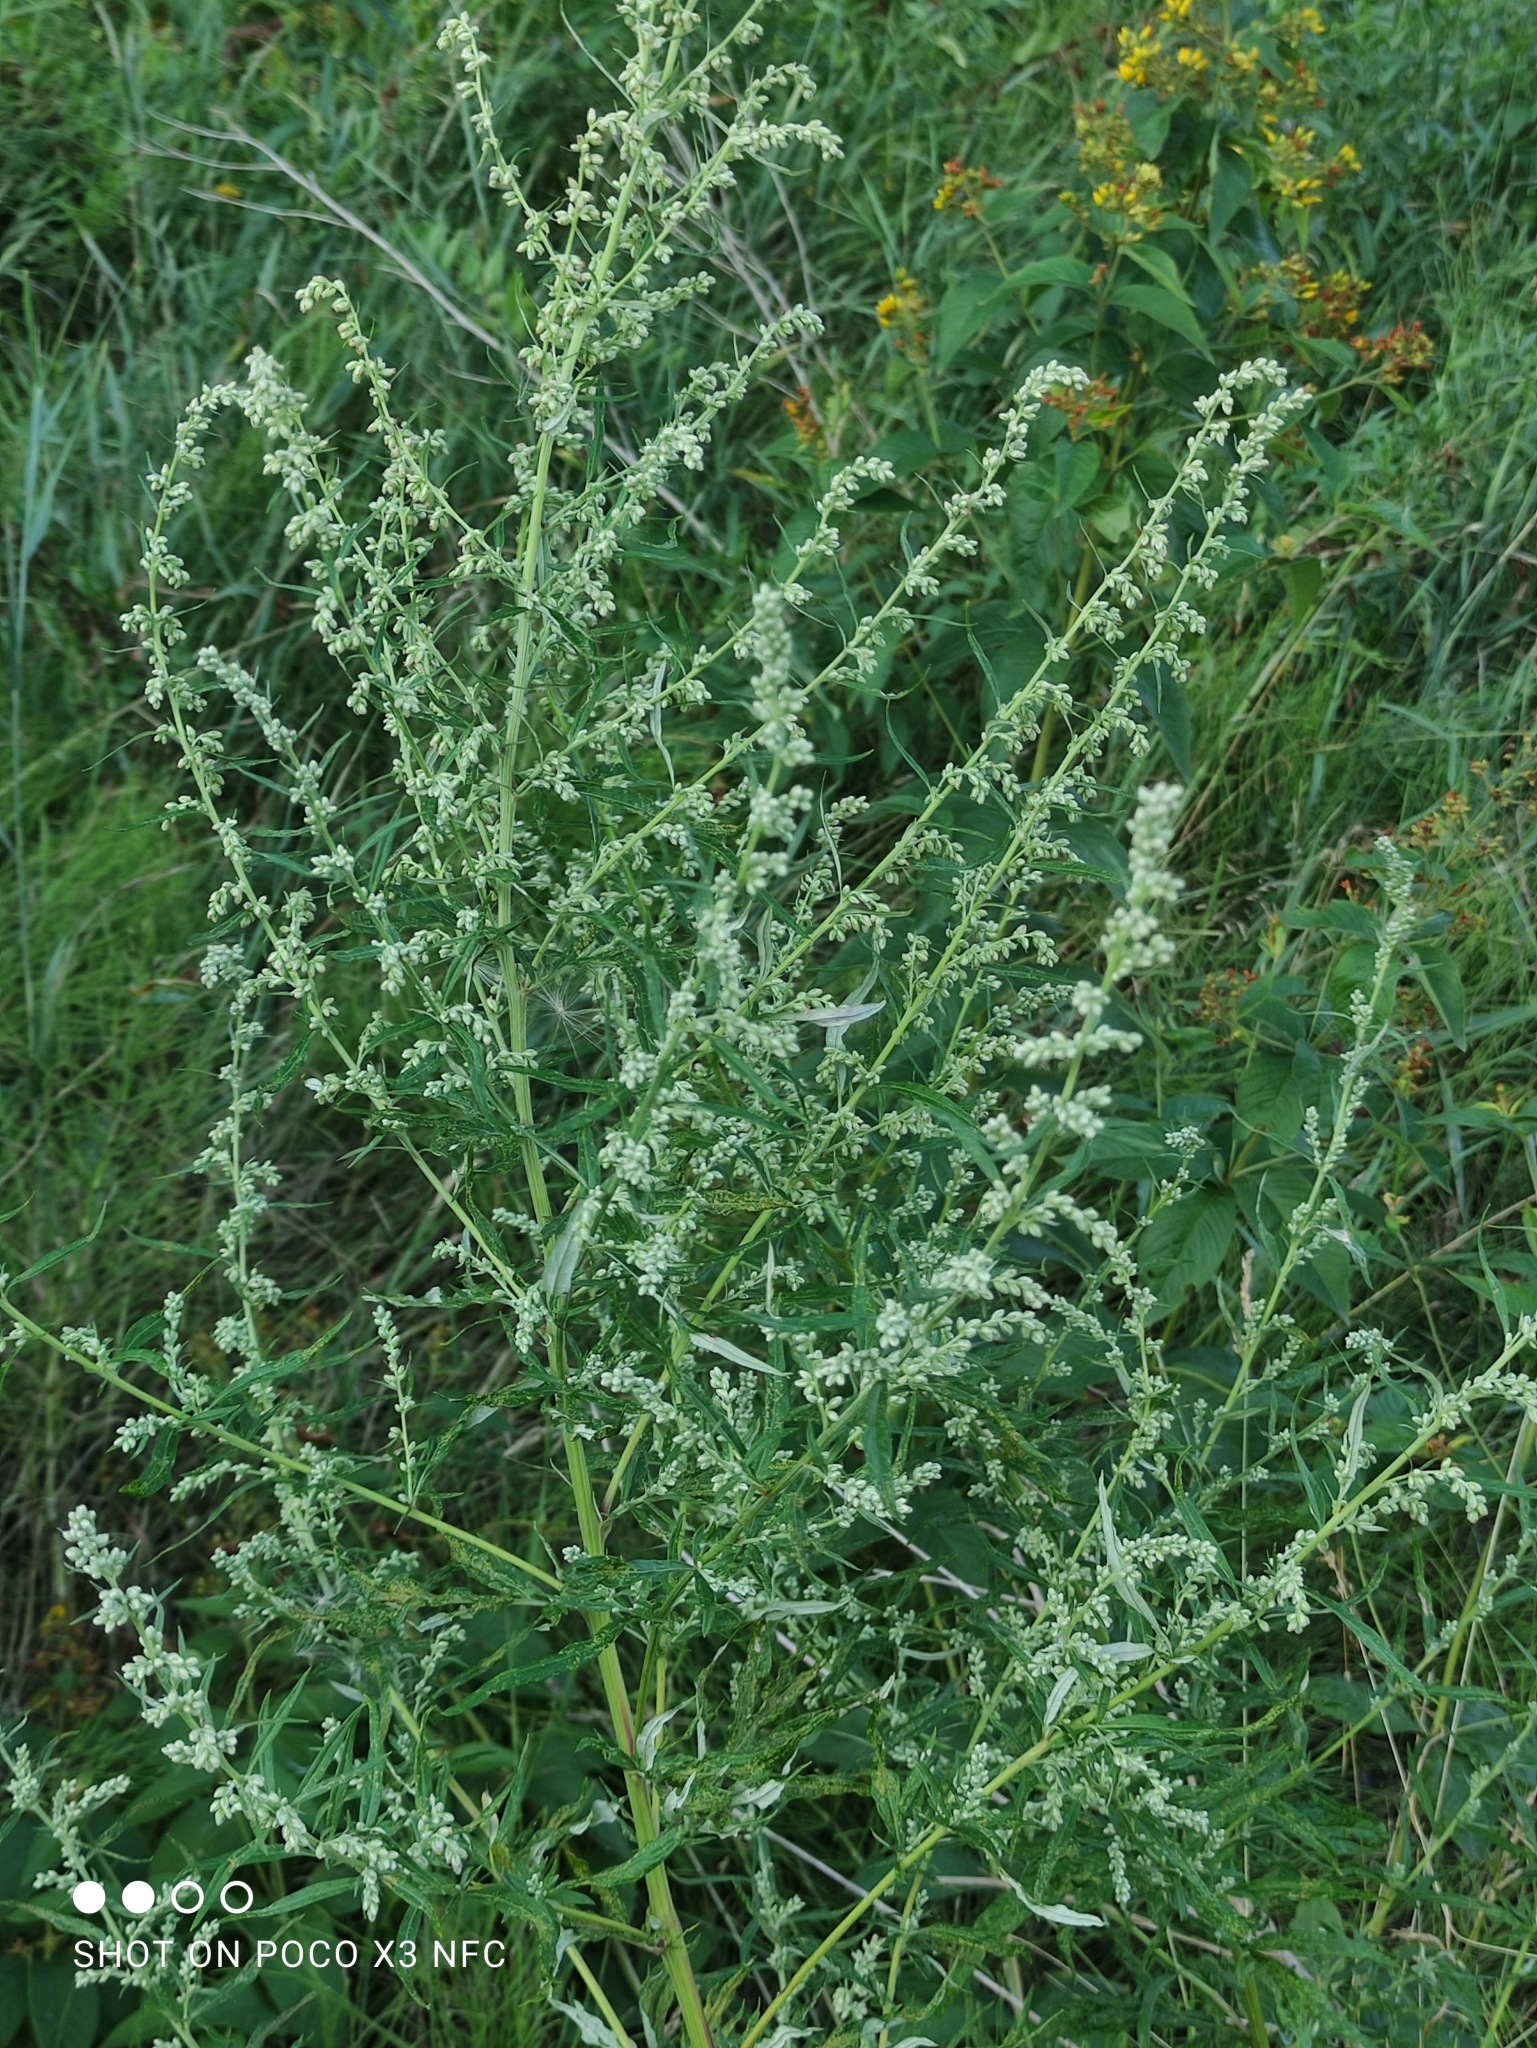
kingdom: Plantae
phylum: Tracheophyta
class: Magnoliopsida
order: Asterales
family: Asteraceae
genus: Artemisia
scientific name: Artemisia vulgaris
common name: Mugwort
